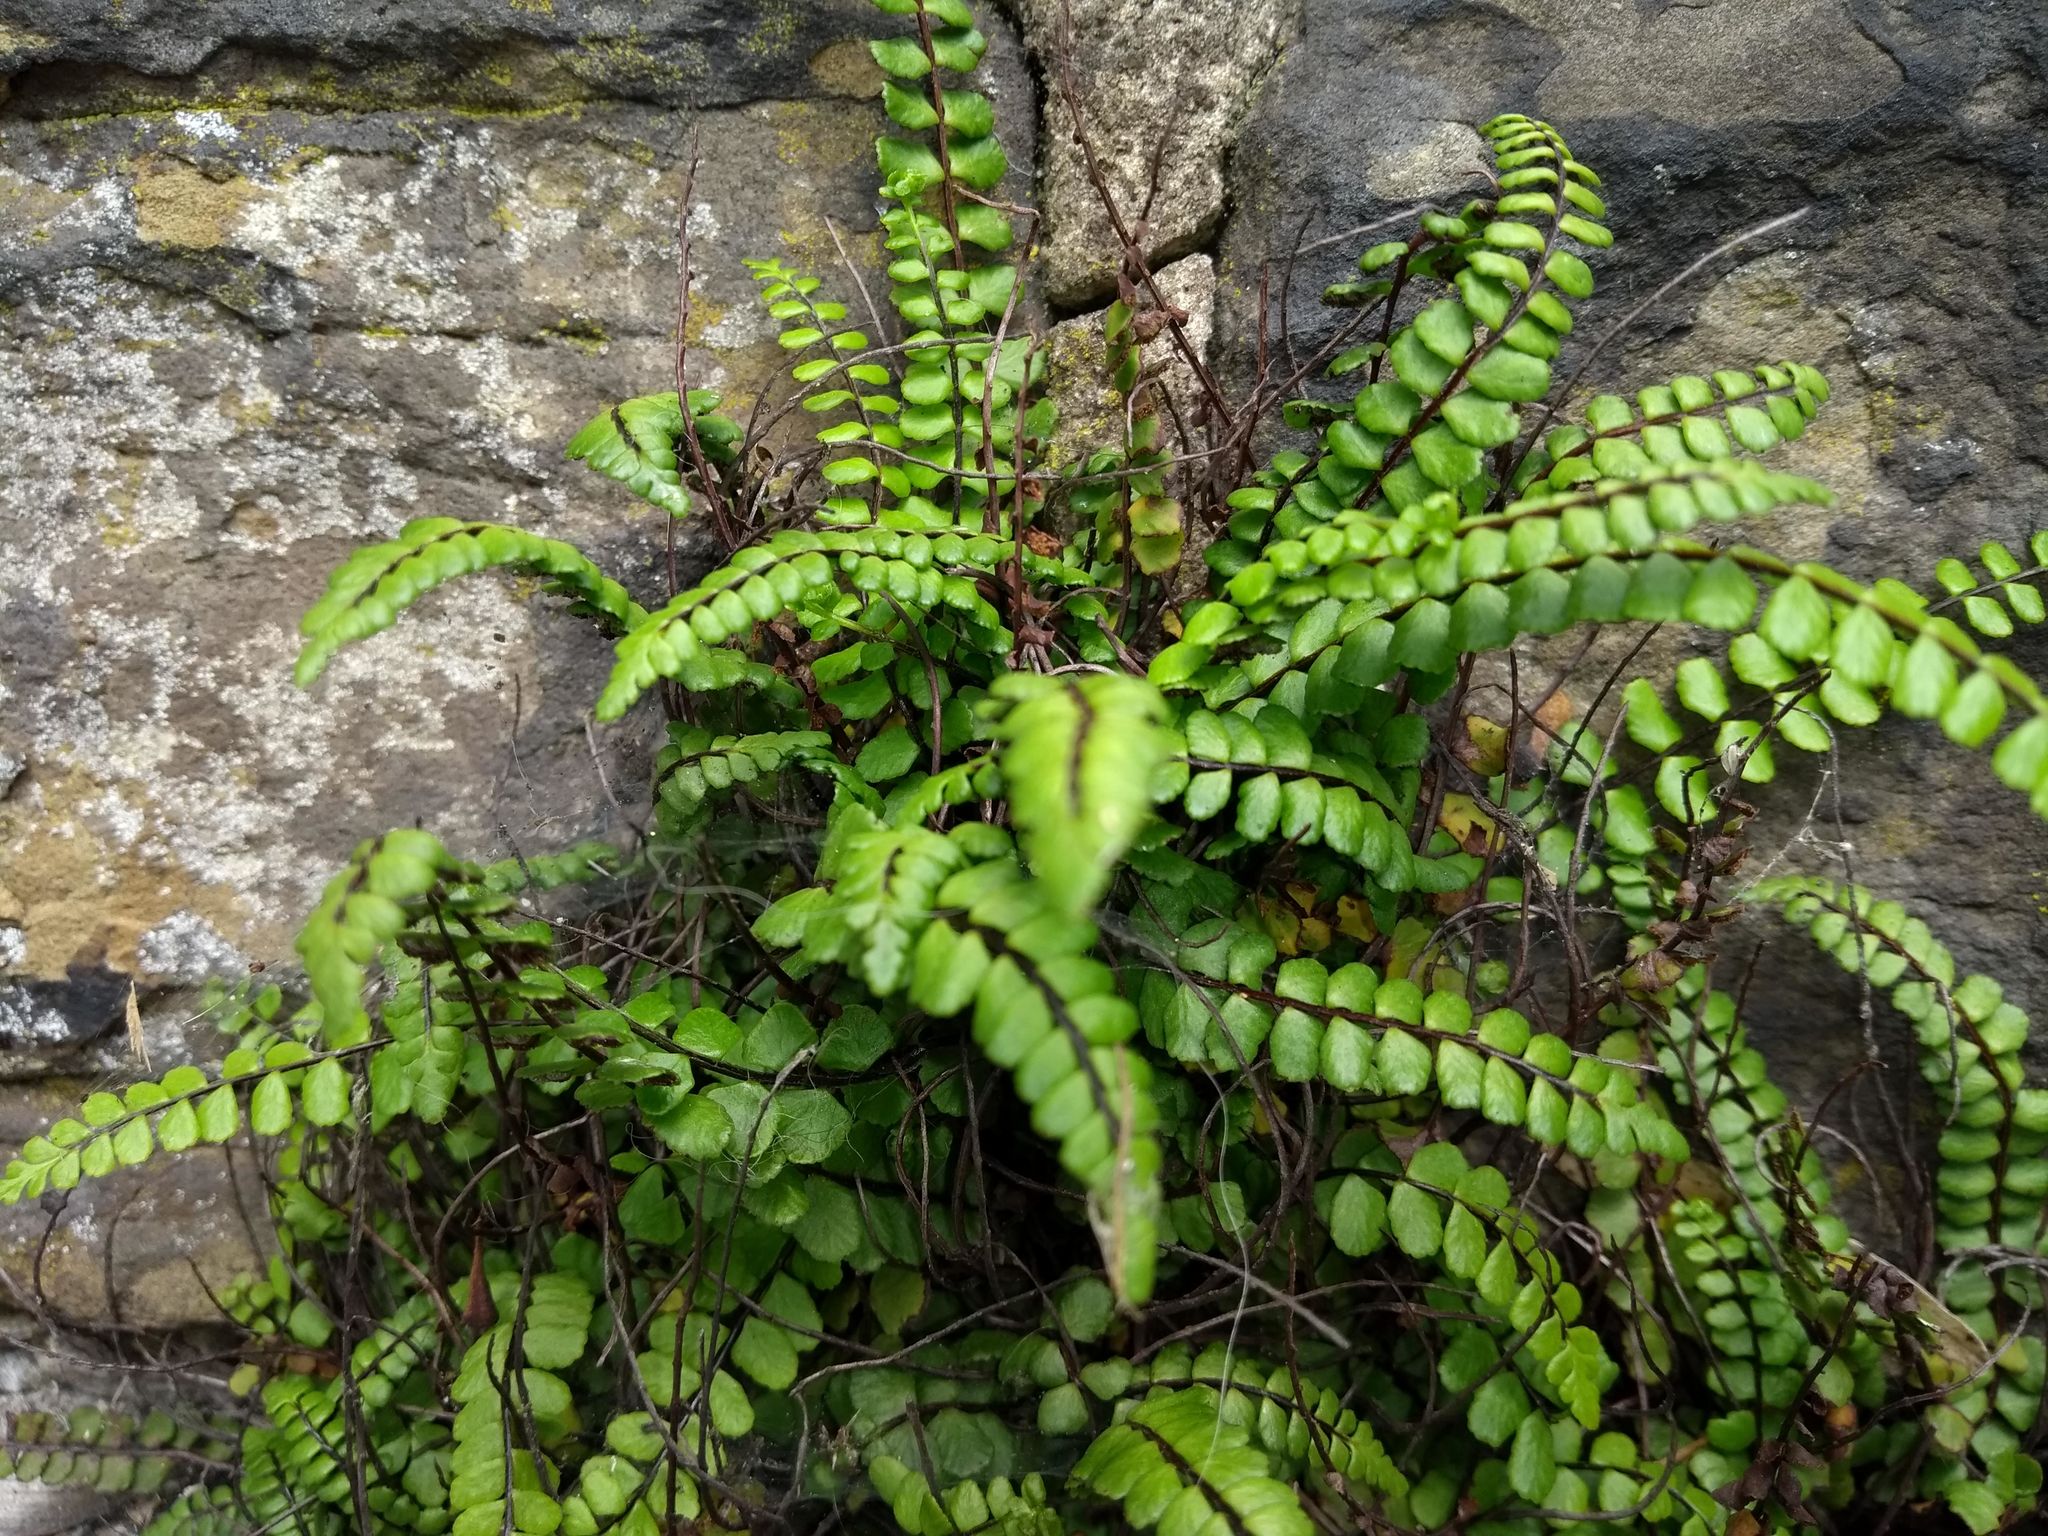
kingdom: Plantae
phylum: Tracheophyta
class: Polypodiopsida
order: Polypodiales
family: Aspleniaceae
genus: Asplenium
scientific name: Asplenium trichomanes
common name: Maidenhair spleenwort
